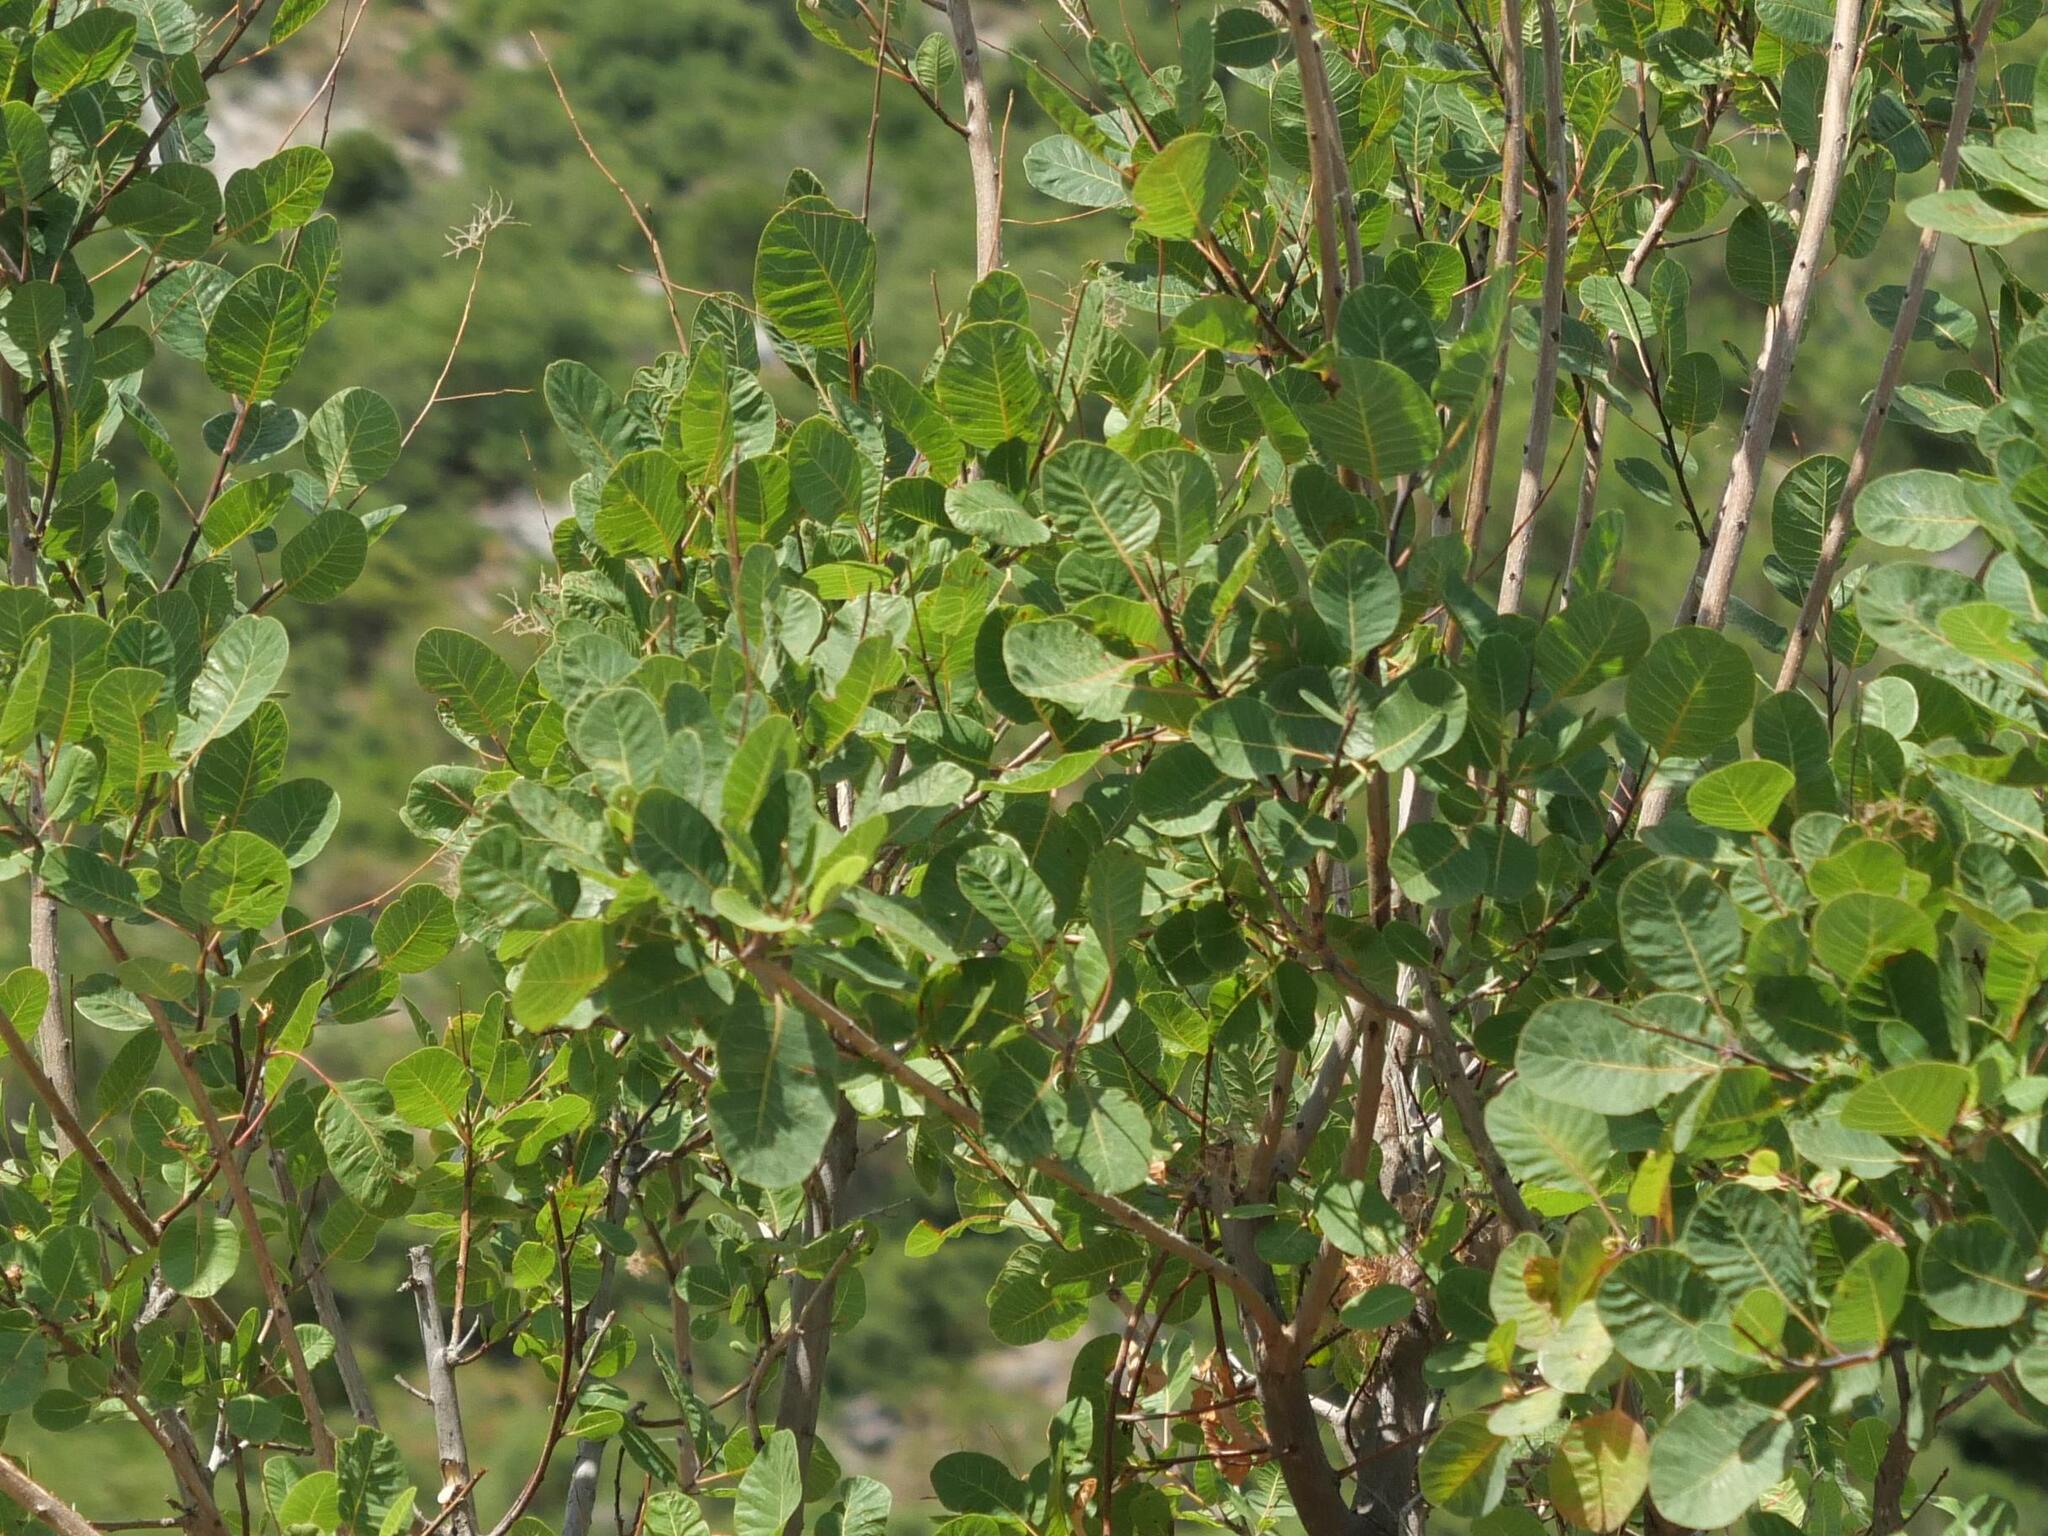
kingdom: Plantae
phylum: Tracheophyta
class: Magnoliopsida
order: Sapindales
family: Anacardiaceae
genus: Cotinus
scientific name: Cotinus coggygria
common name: Smoke-tree
